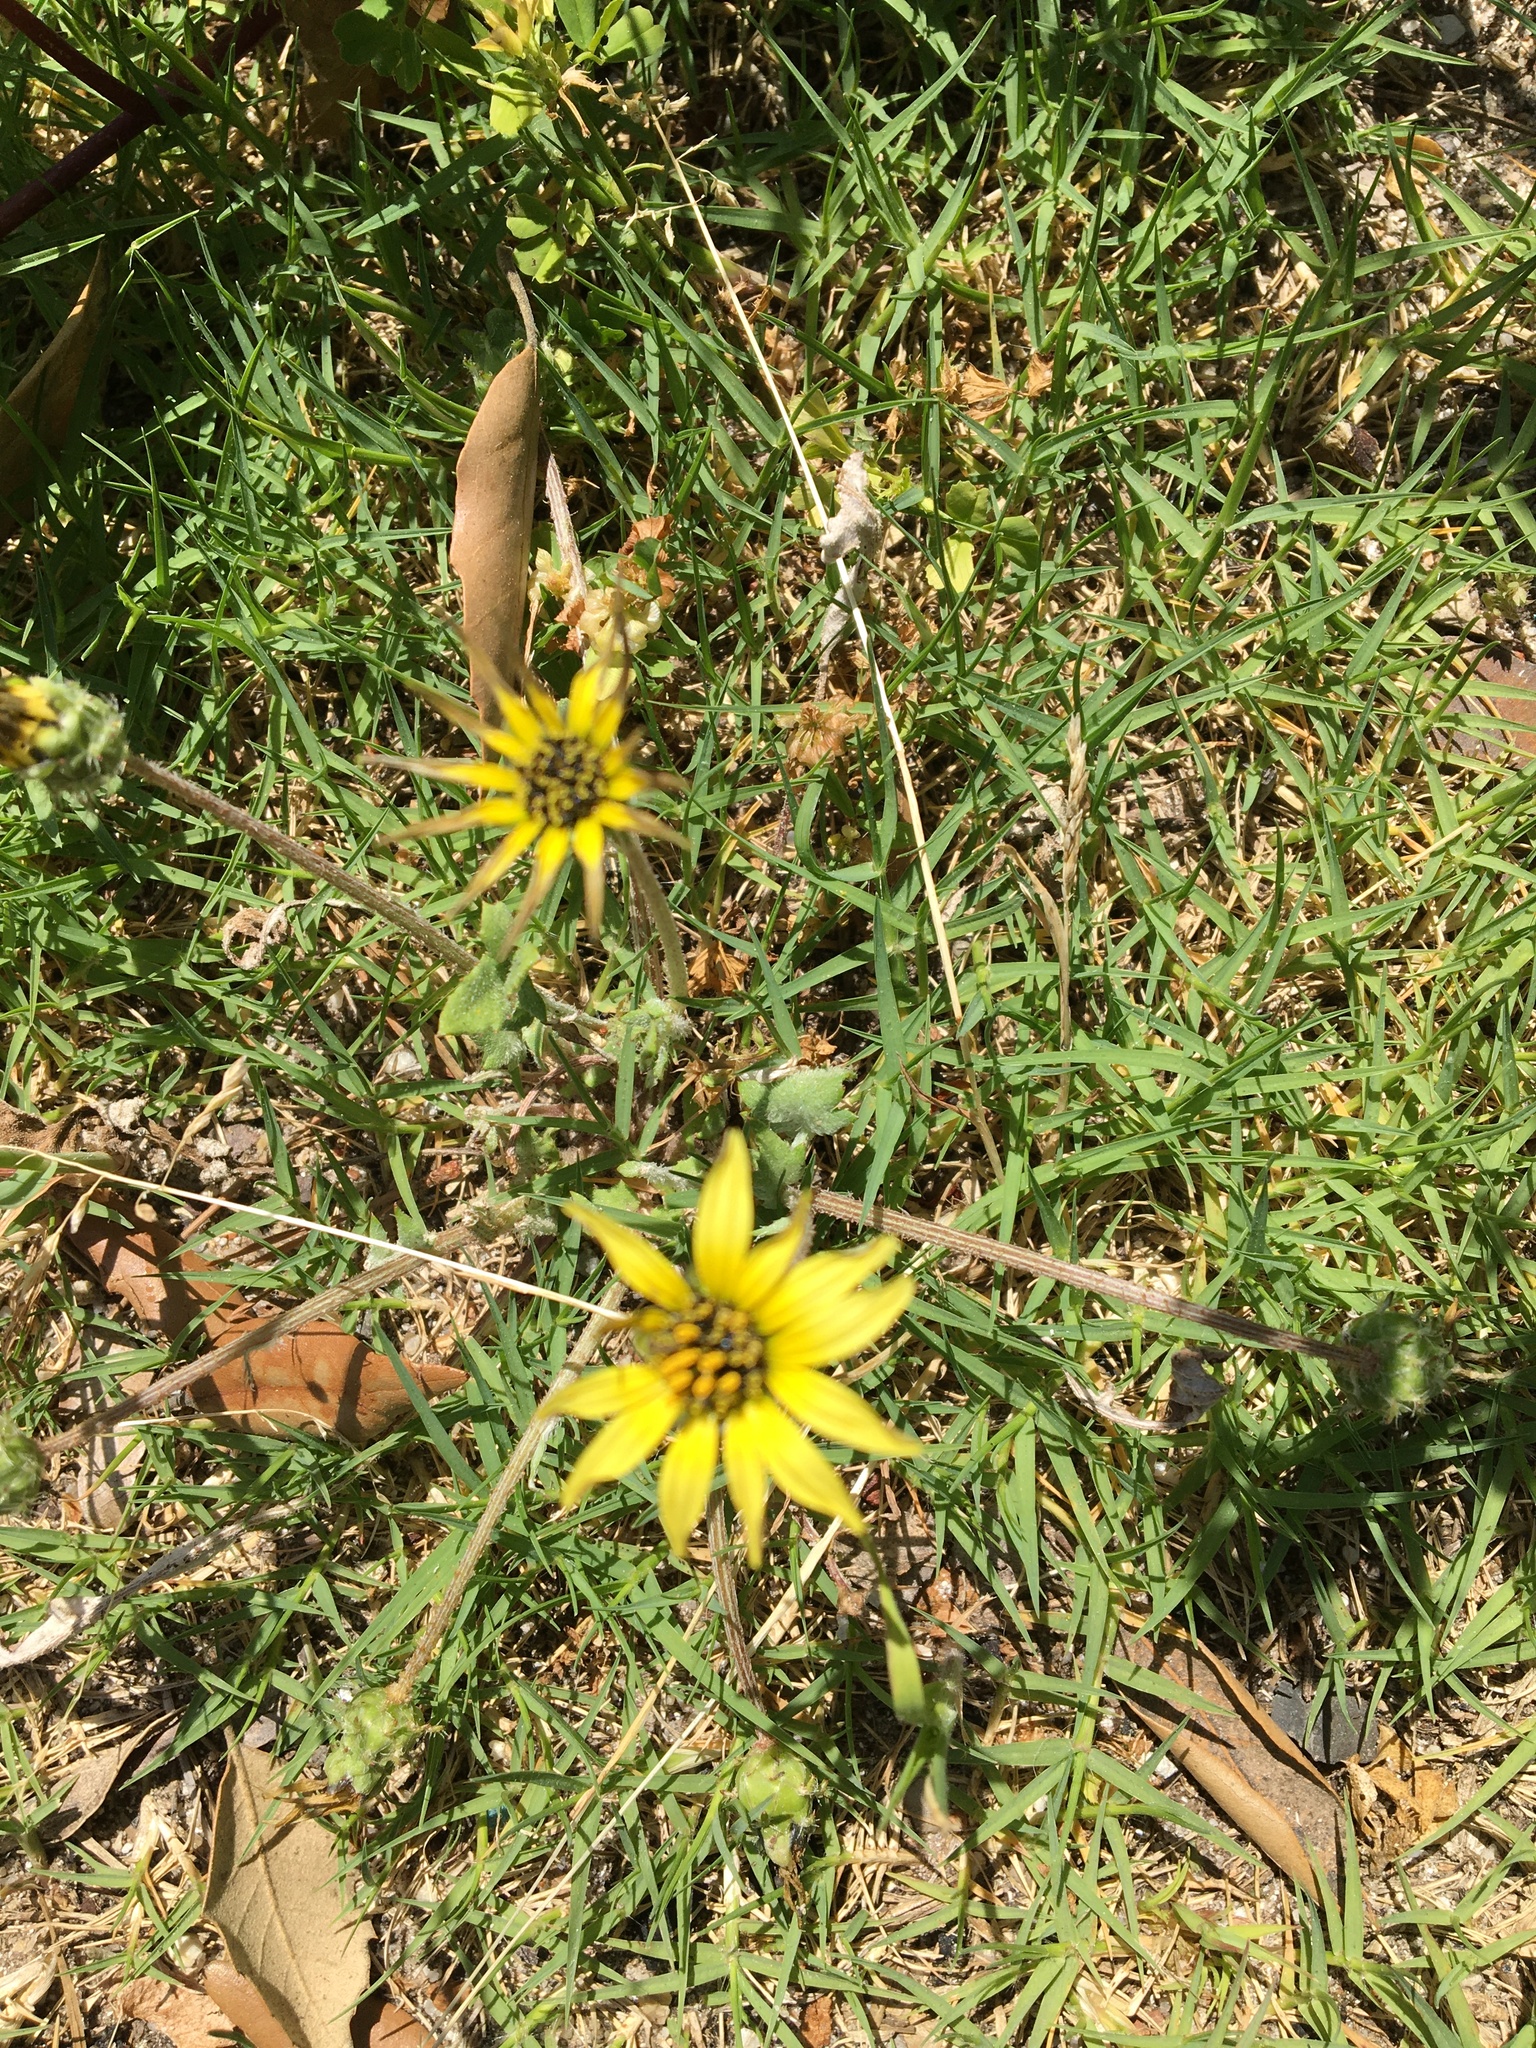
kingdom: Plantae
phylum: Tracheophyta
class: Magnoliopsida
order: Asterales
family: Asteraceae
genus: Arctotheca
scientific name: Arctotheca calendula
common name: Capeweed
